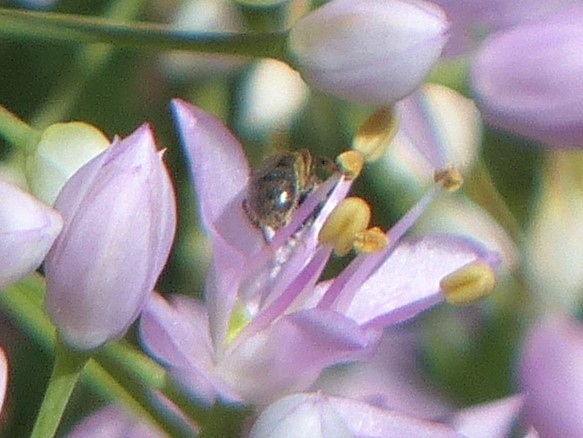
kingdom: Animalia
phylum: Arthropoda
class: Insecta
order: Hymenoptera
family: Halictidae
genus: Dialictus
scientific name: Dialictus
